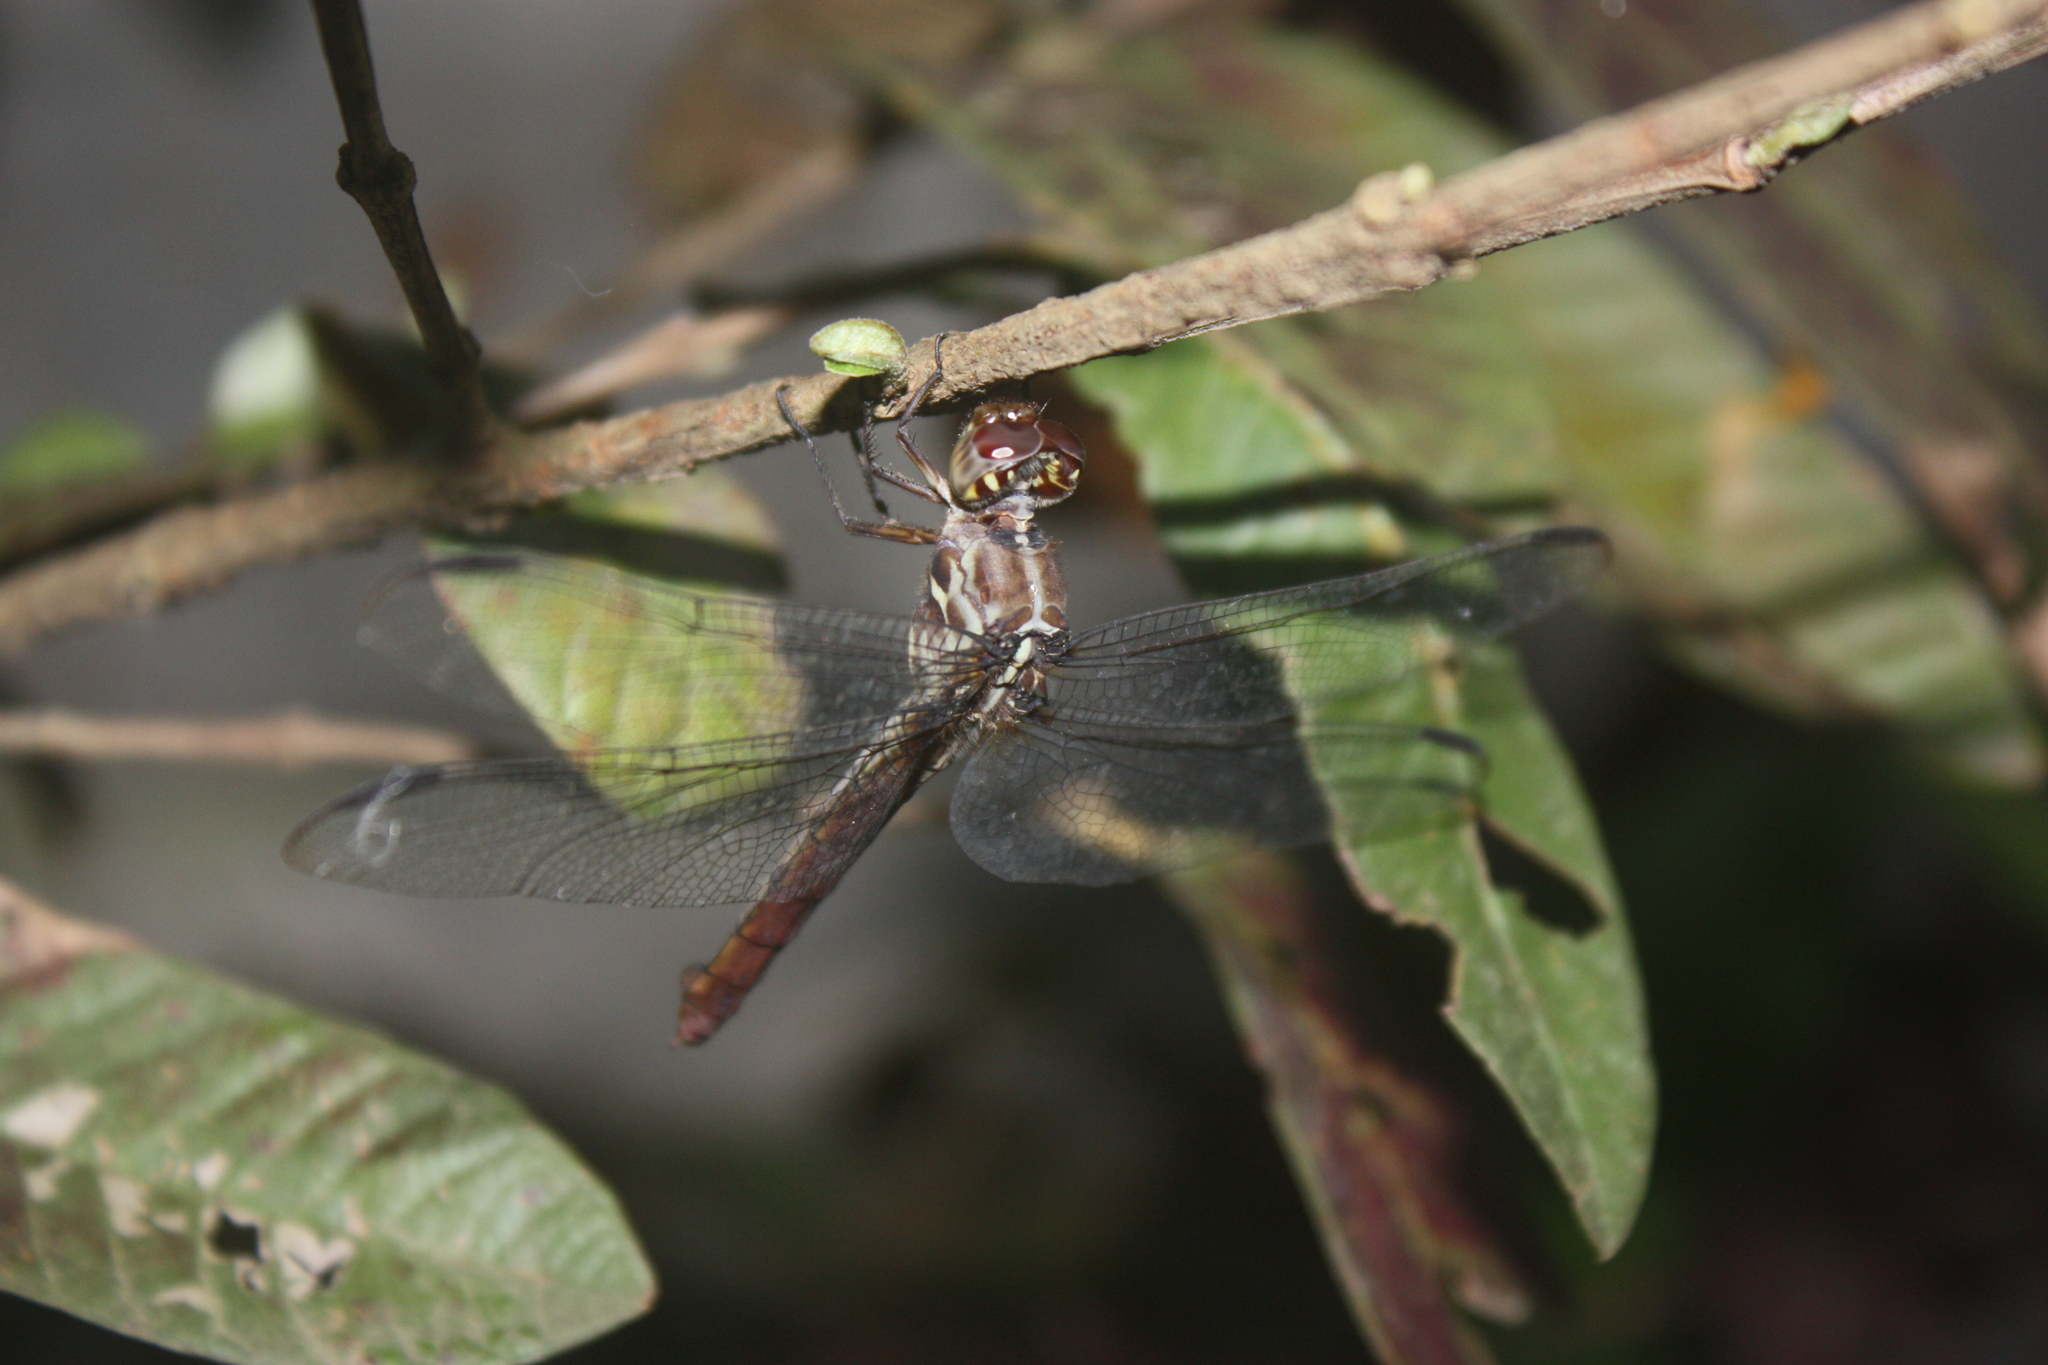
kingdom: Animalia
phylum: Arthropoda
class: Insecta
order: Odonata
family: Libellulidae
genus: Orthemis
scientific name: Orthemis ferruginea
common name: Roseate skimmer
